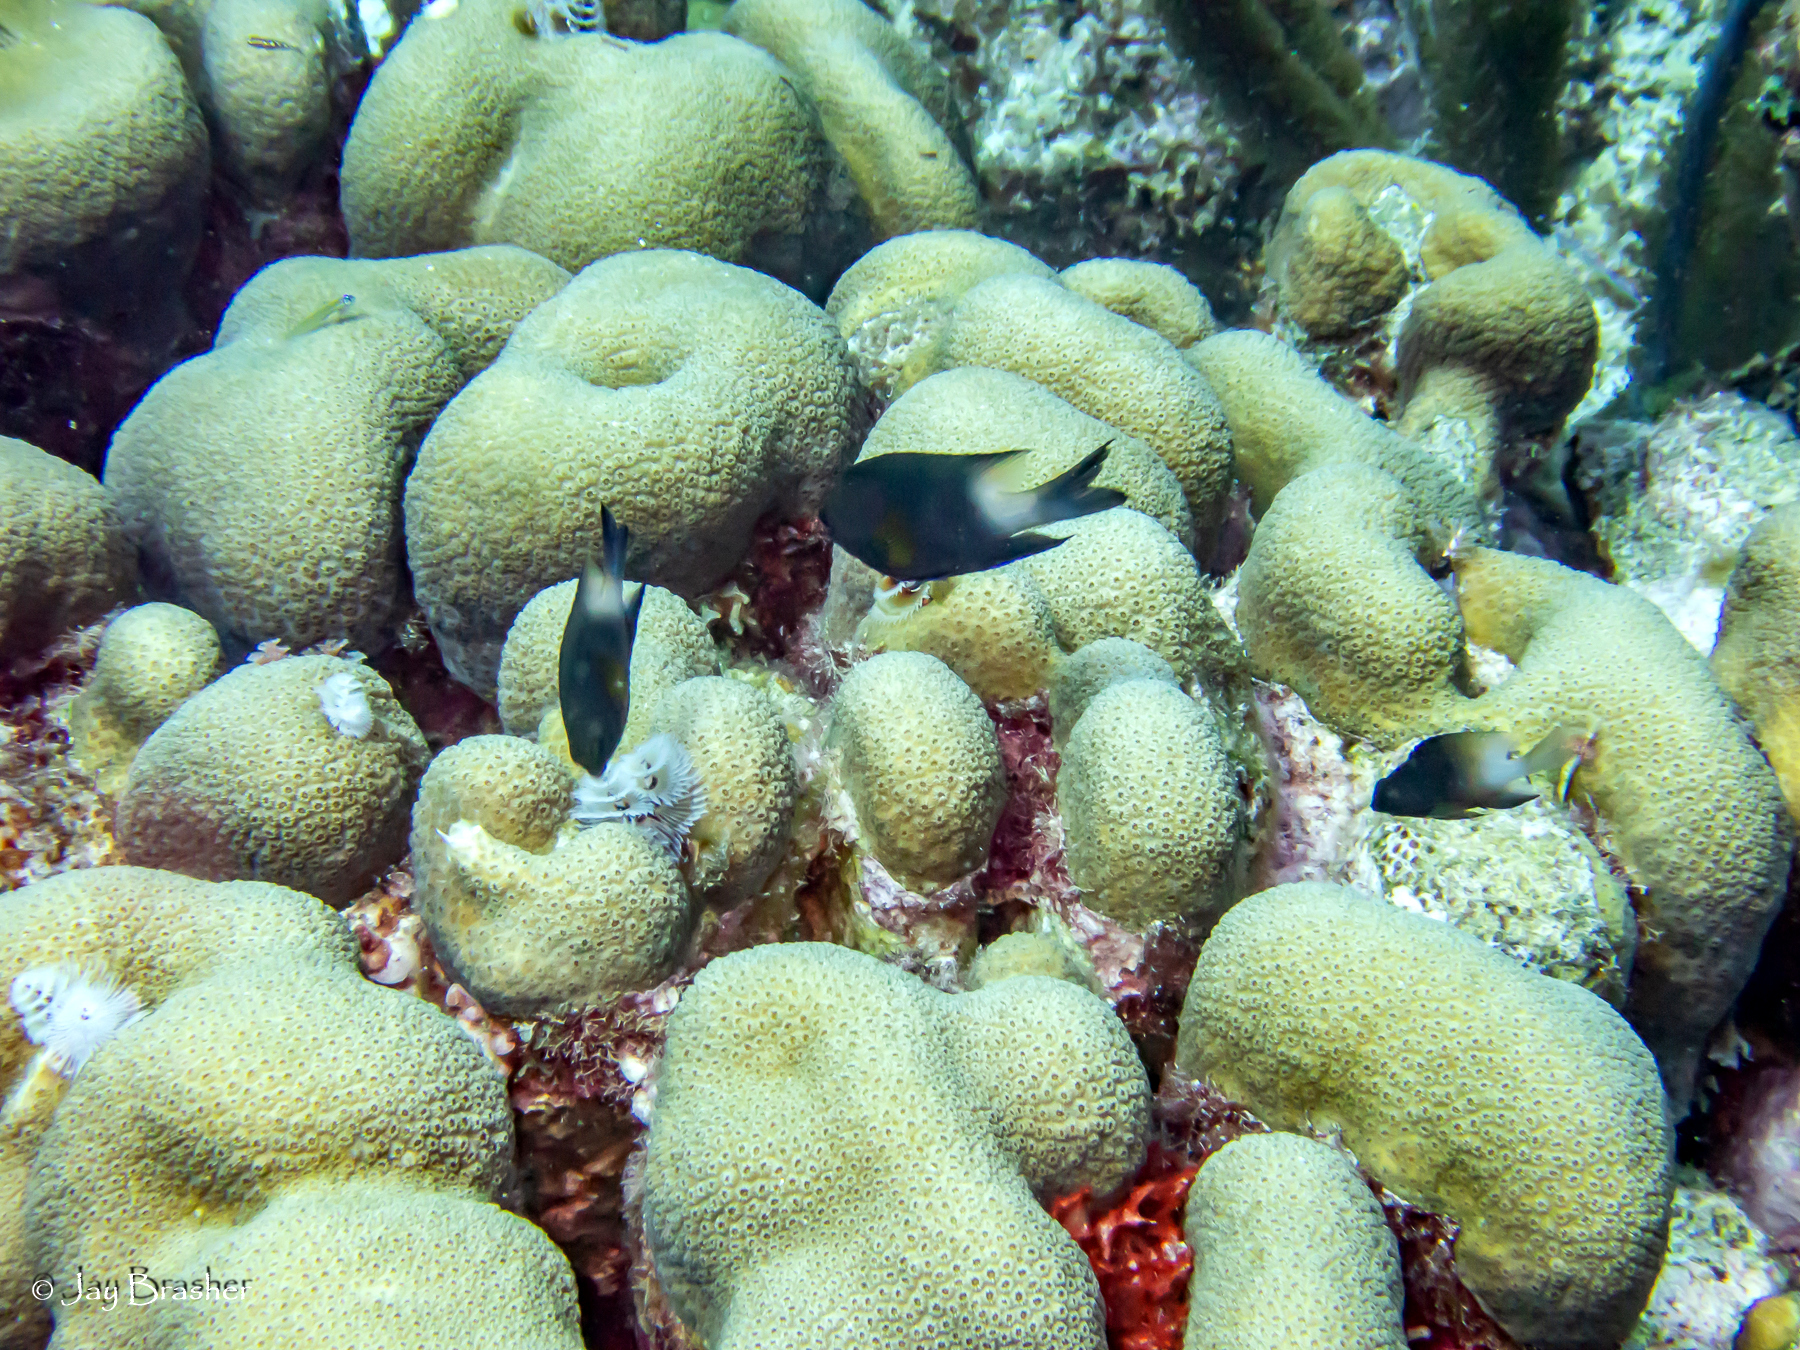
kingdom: Animalia
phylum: Cnidaria
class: Anthozoa
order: Scleractinia
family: Merulinidae
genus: Orbicella
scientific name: Orbicella annularis
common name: Boulder star coral
